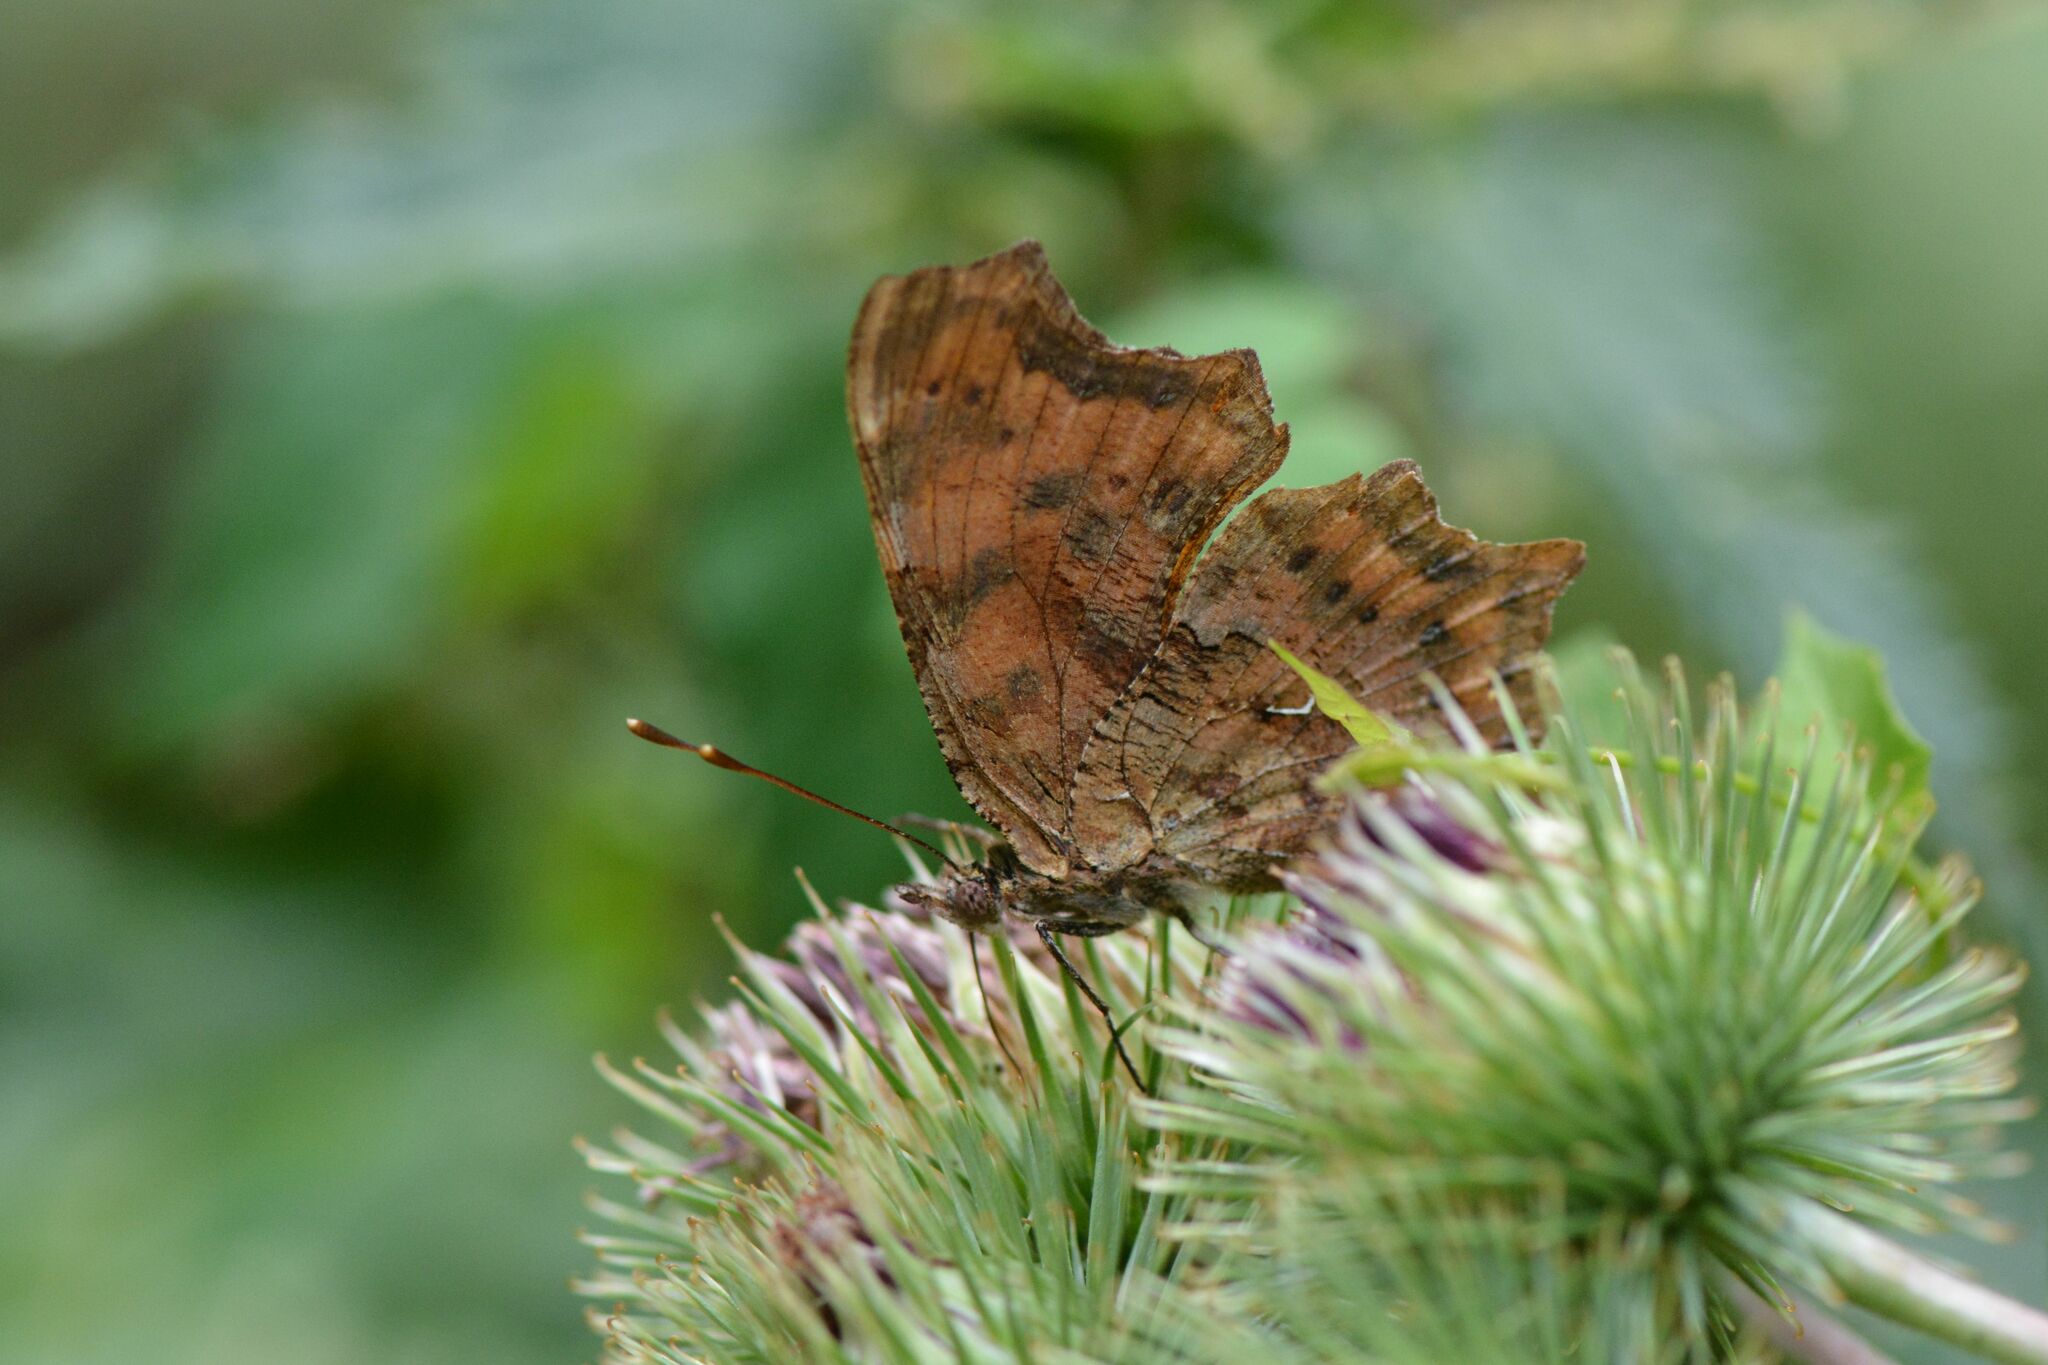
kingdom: Animalia
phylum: Arthropoda
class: Insecta
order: Lepidoptera
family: Nymphalidae
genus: Polygonia
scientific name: Polygonia c-album
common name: Comma
